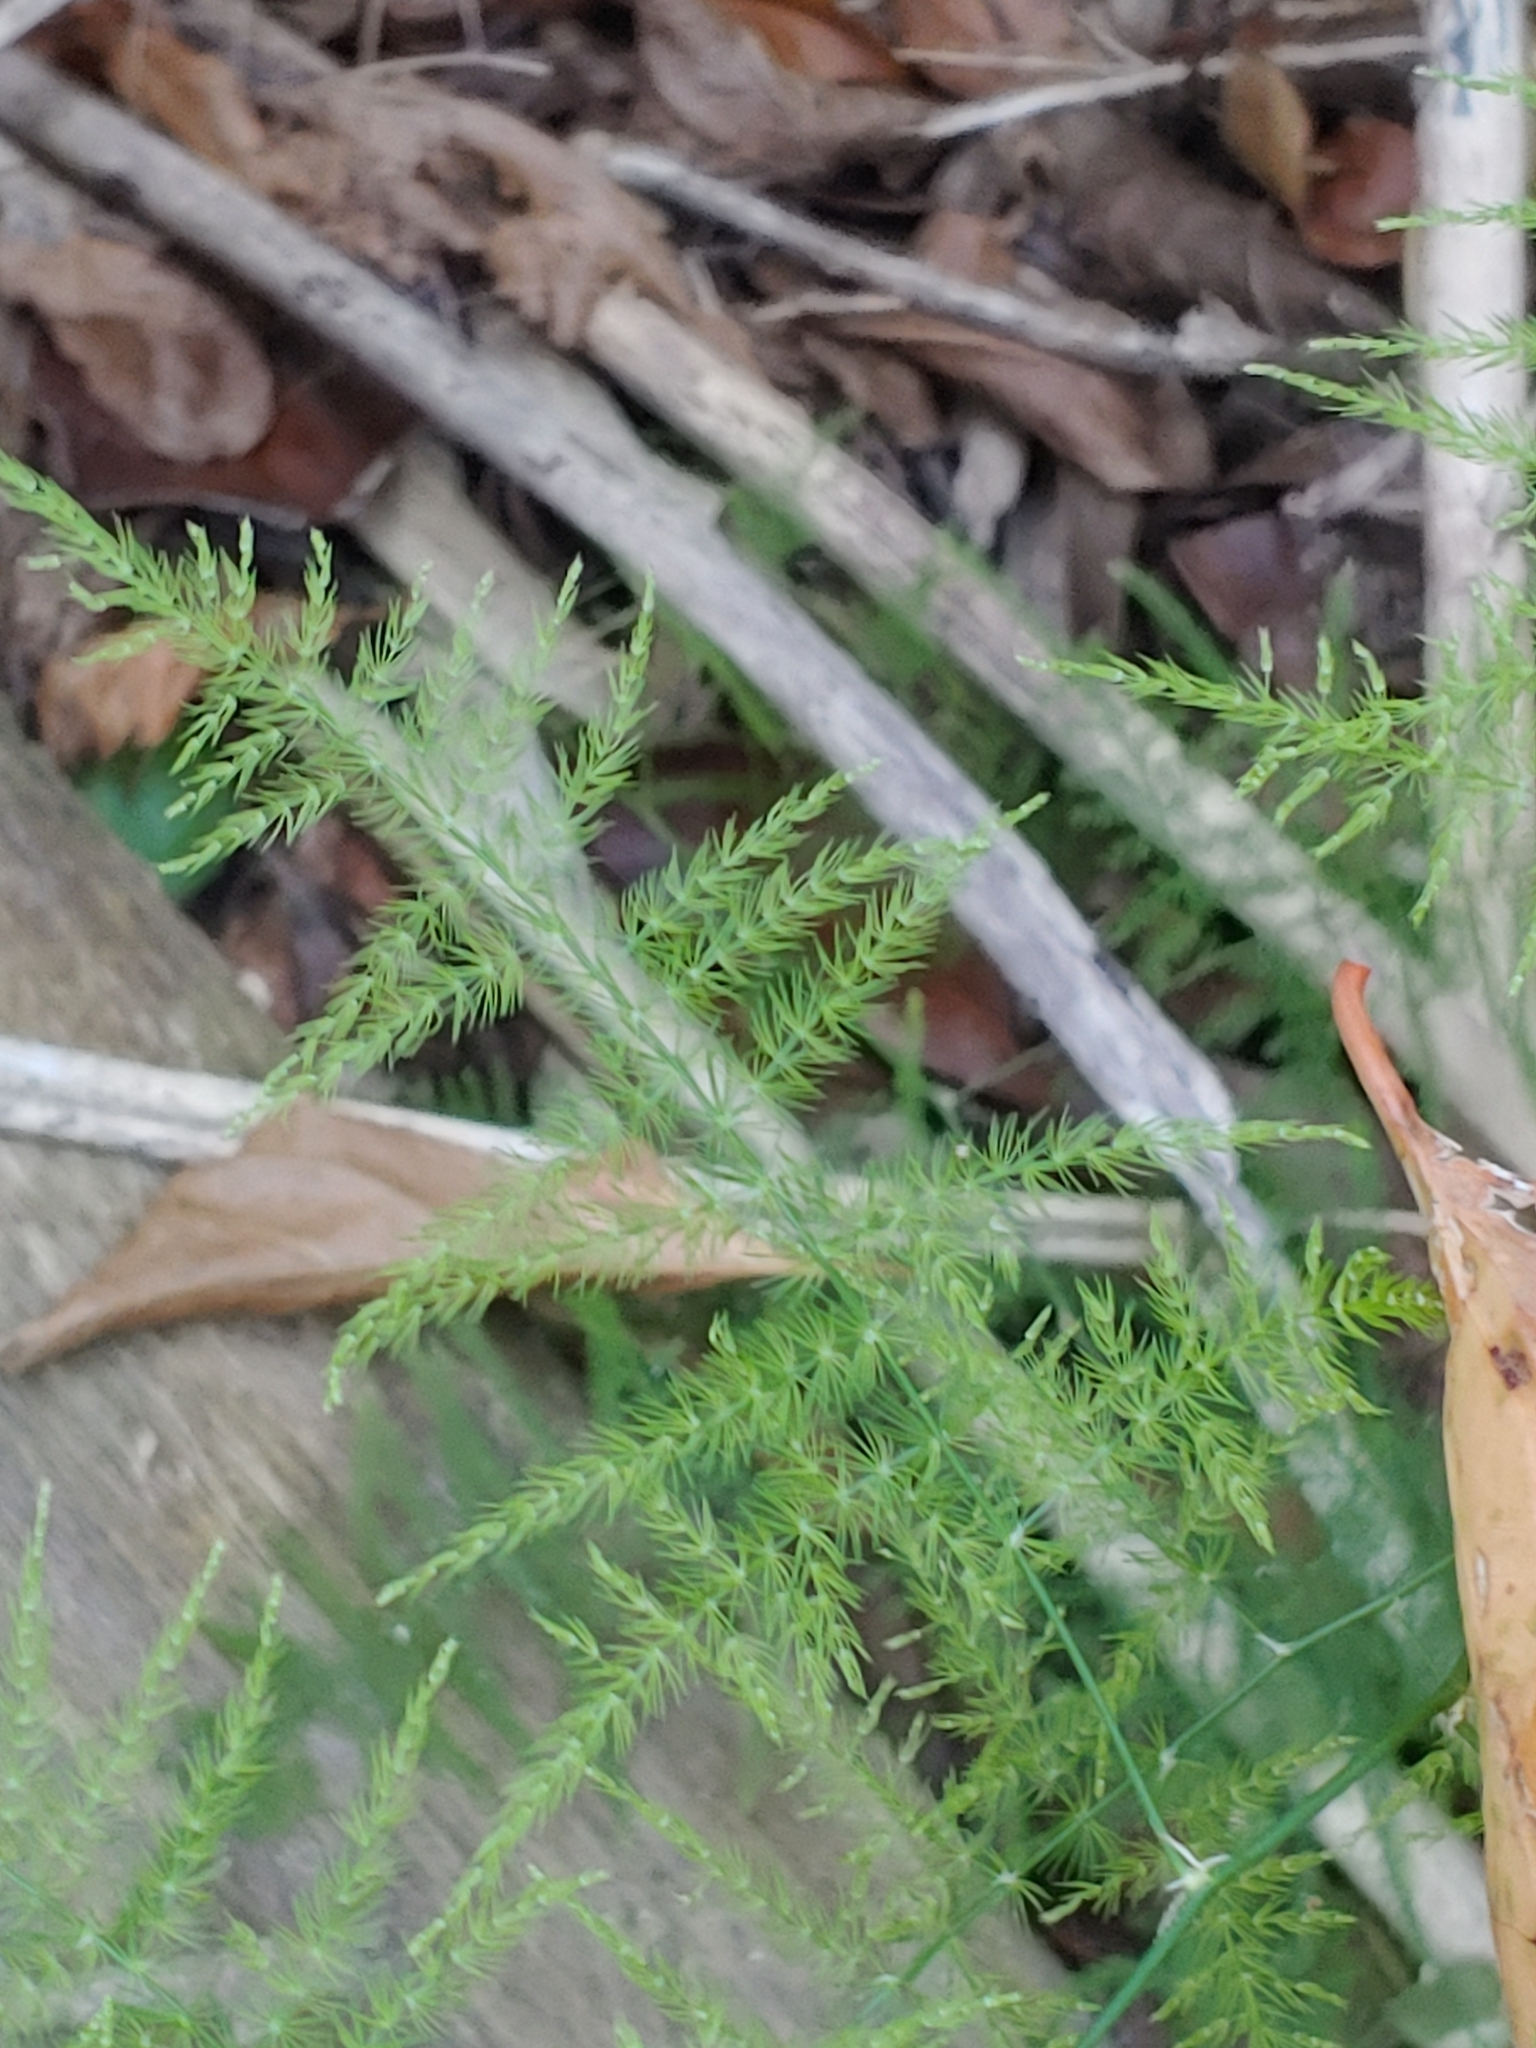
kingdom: Plantae
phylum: Tracheophyta
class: Liliopsida
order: Asparagales
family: Asparagaceae
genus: Asparagus
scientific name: Asparagus setaceus
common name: Common asparagus fern
